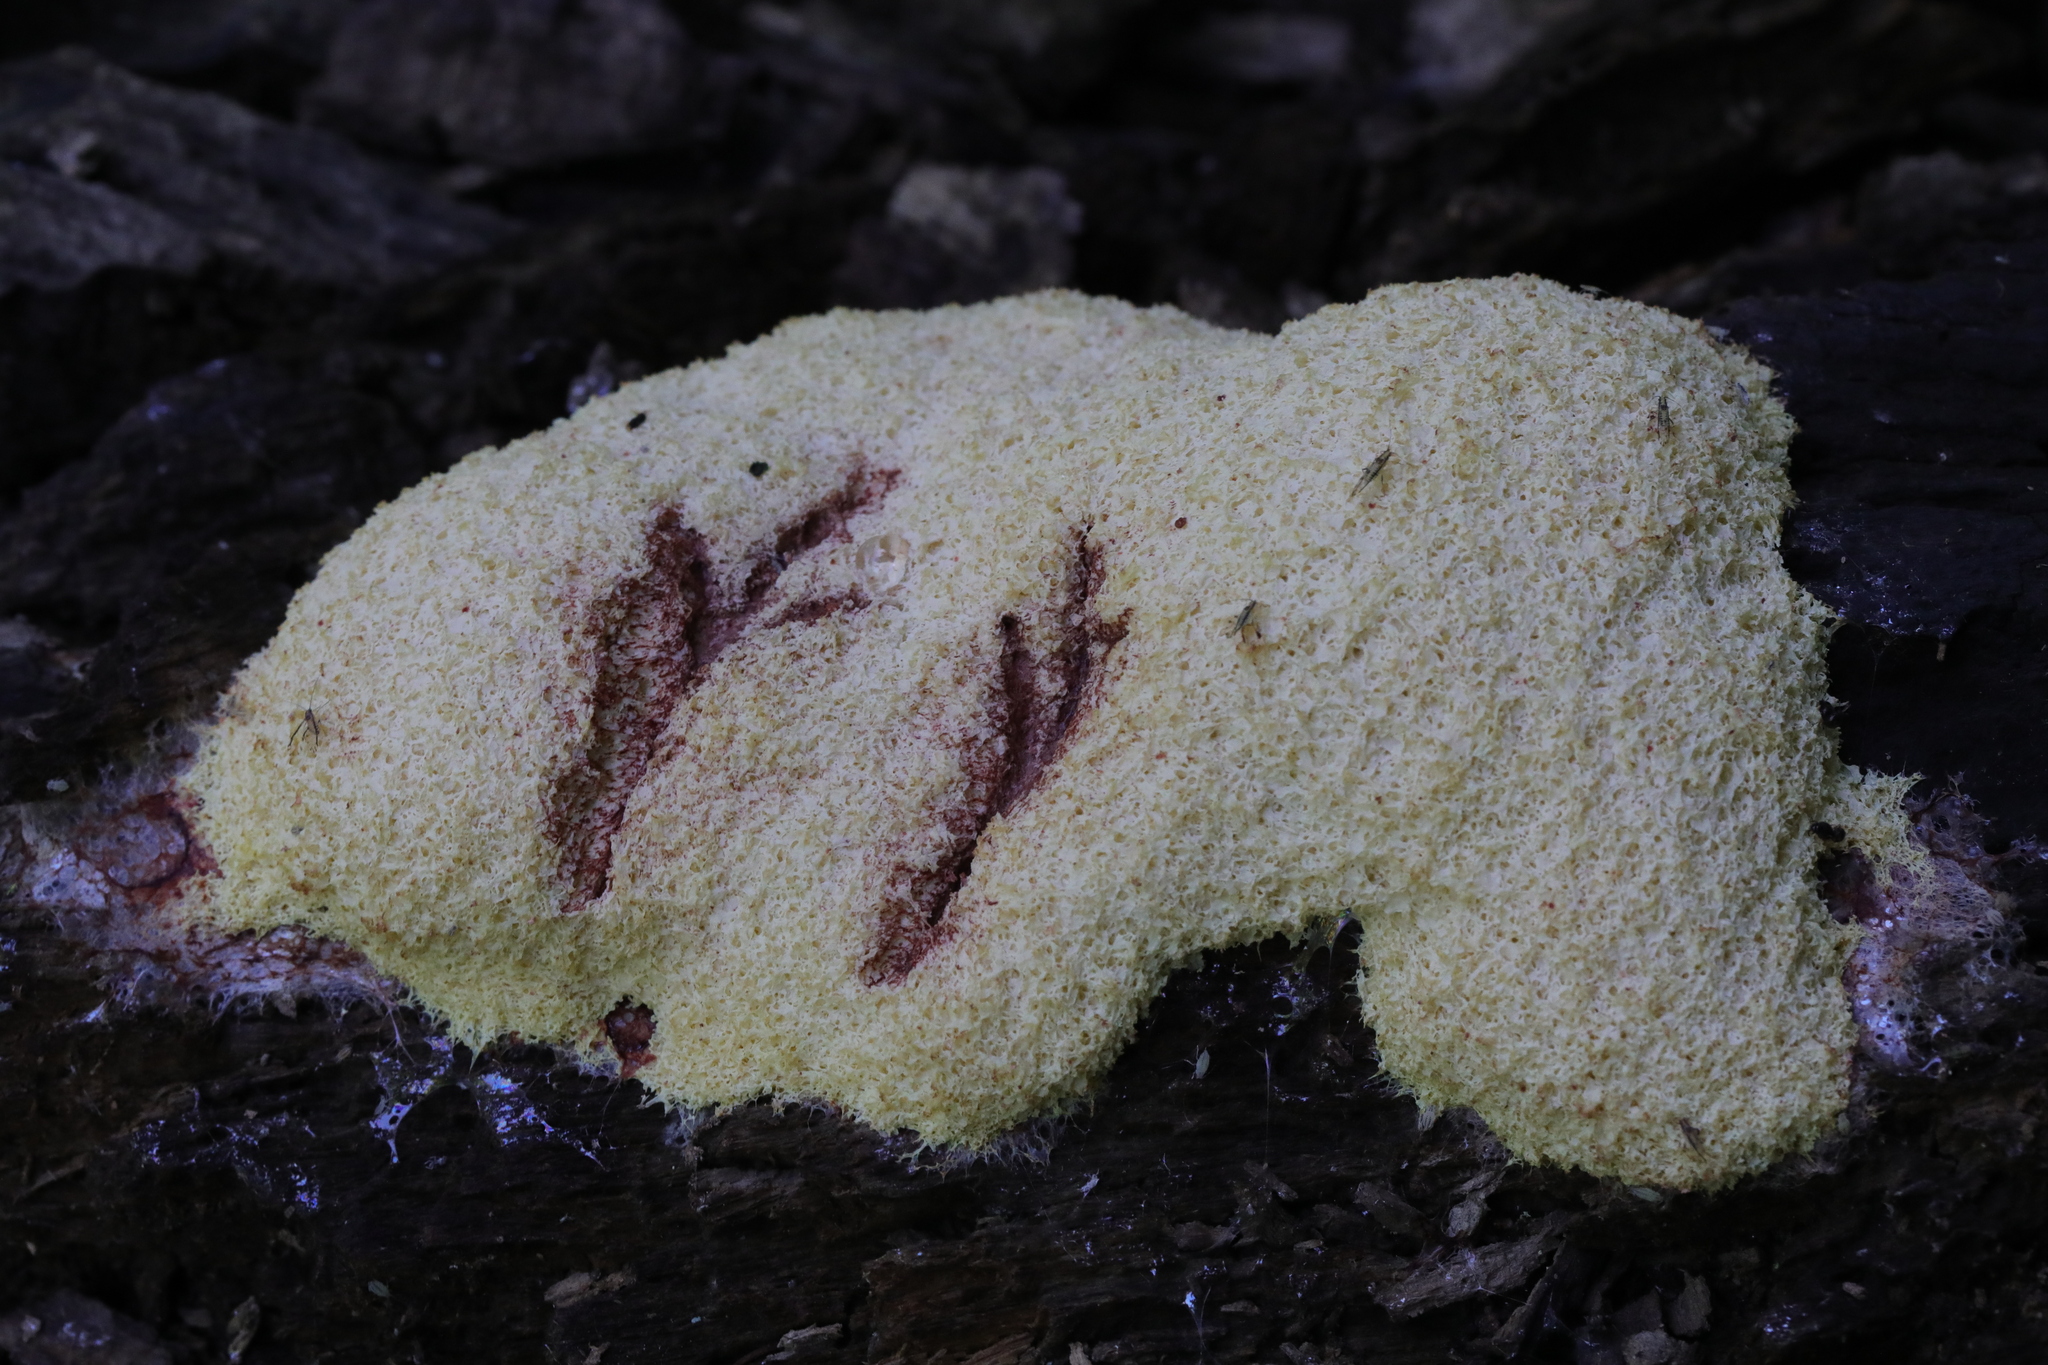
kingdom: Protozoa
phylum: Mycetozoa
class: Myxomycetes
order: Physarales
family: Physaraceae
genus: Fuligo
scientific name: Fuligo septica
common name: Dog vomit slime mold
